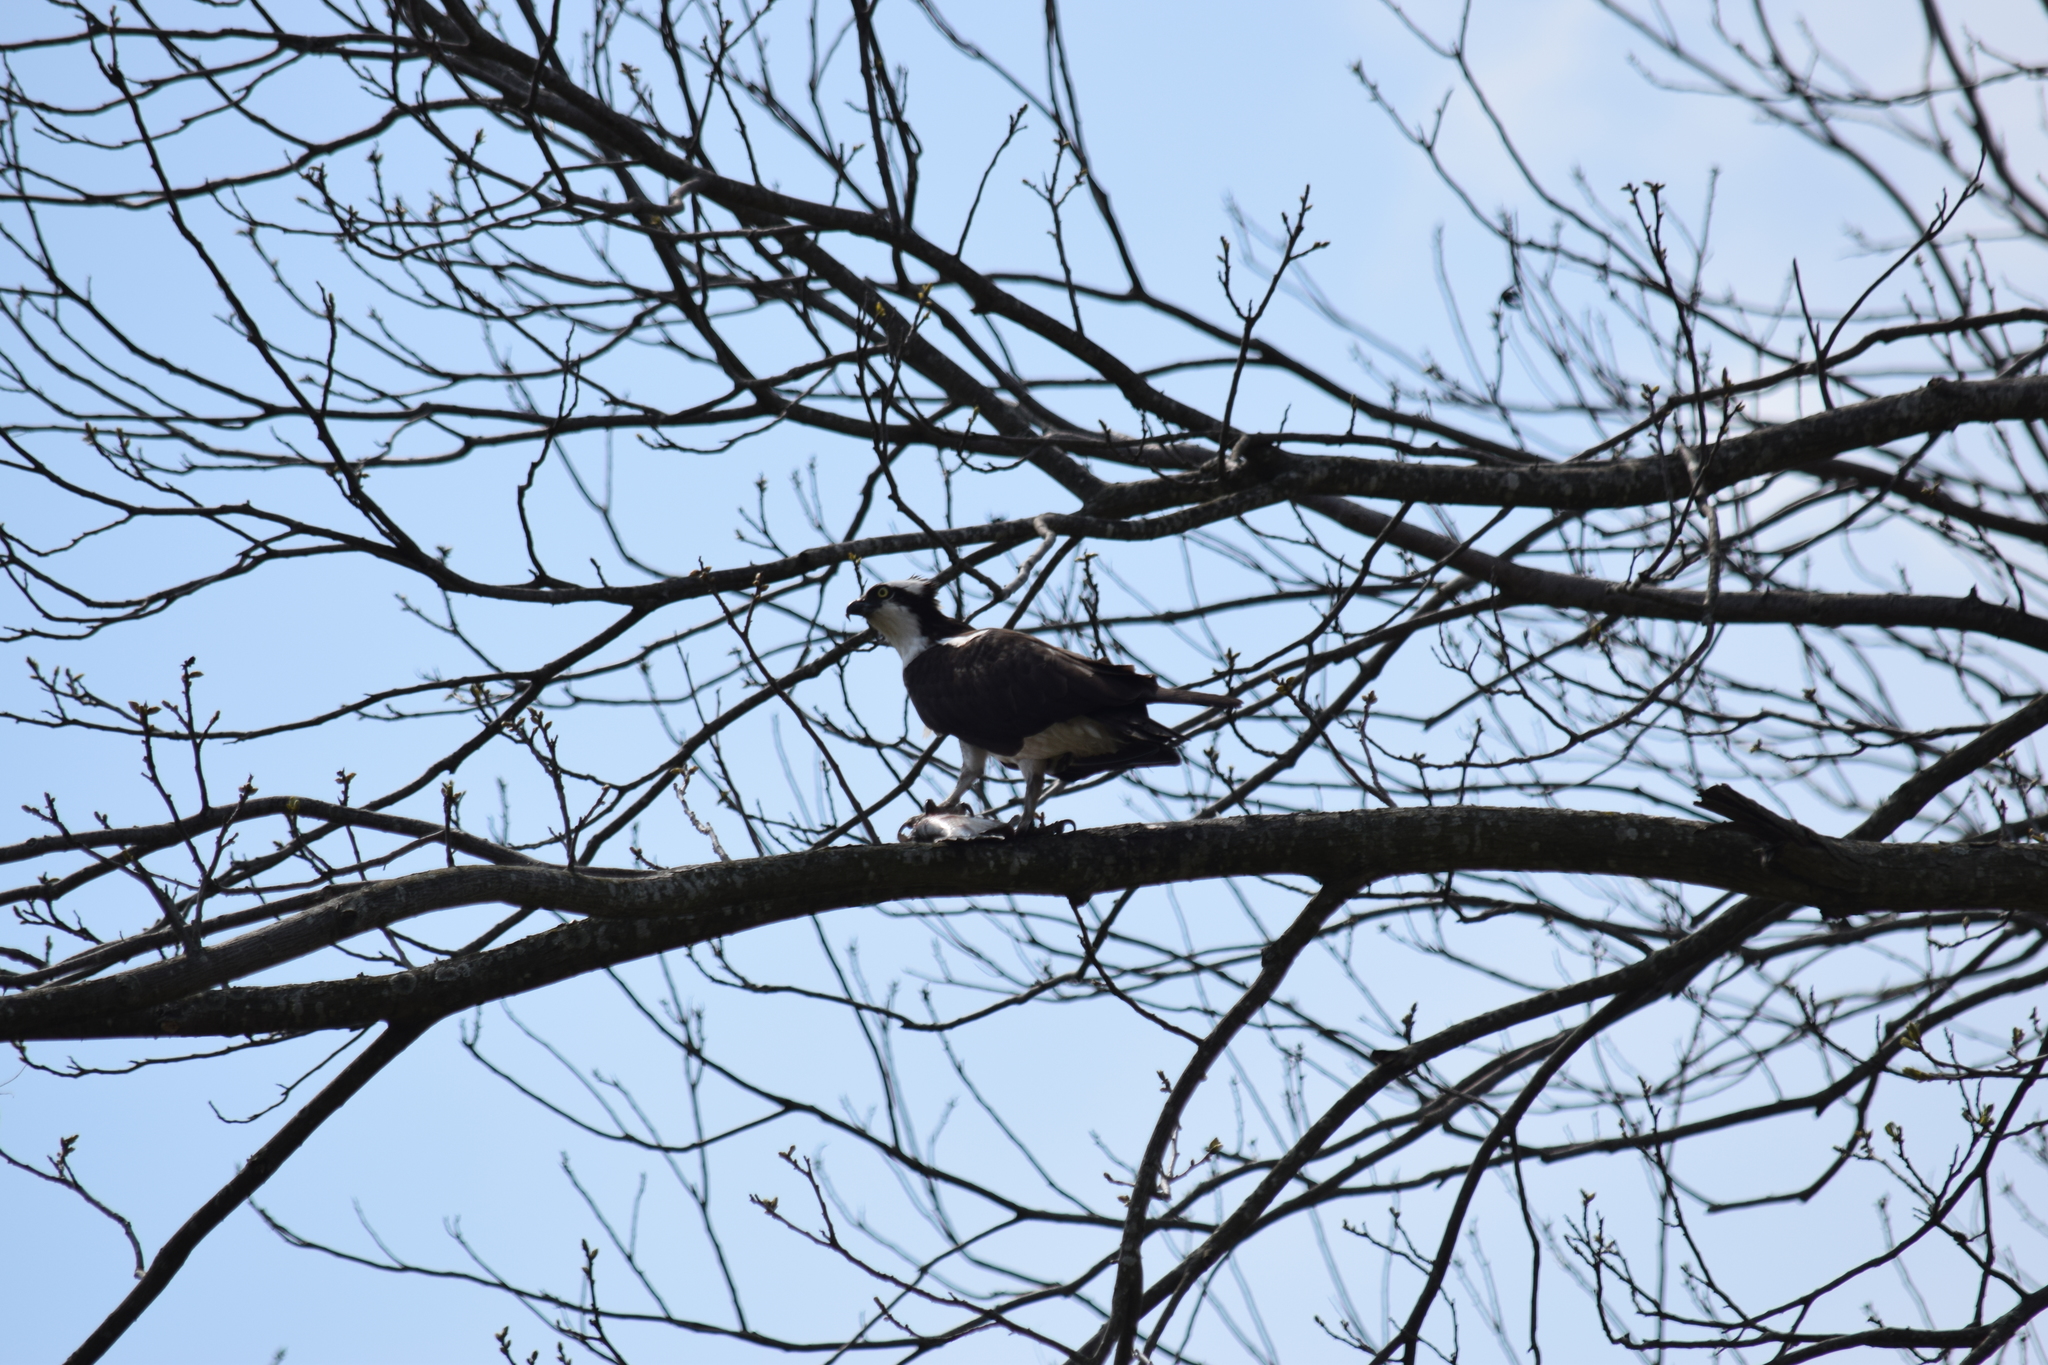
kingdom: Animalia
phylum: Chordata
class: Aves
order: Accipitriformes
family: Pandionidae
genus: Pandion
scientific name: Pandion haliaetus
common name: Osprey
